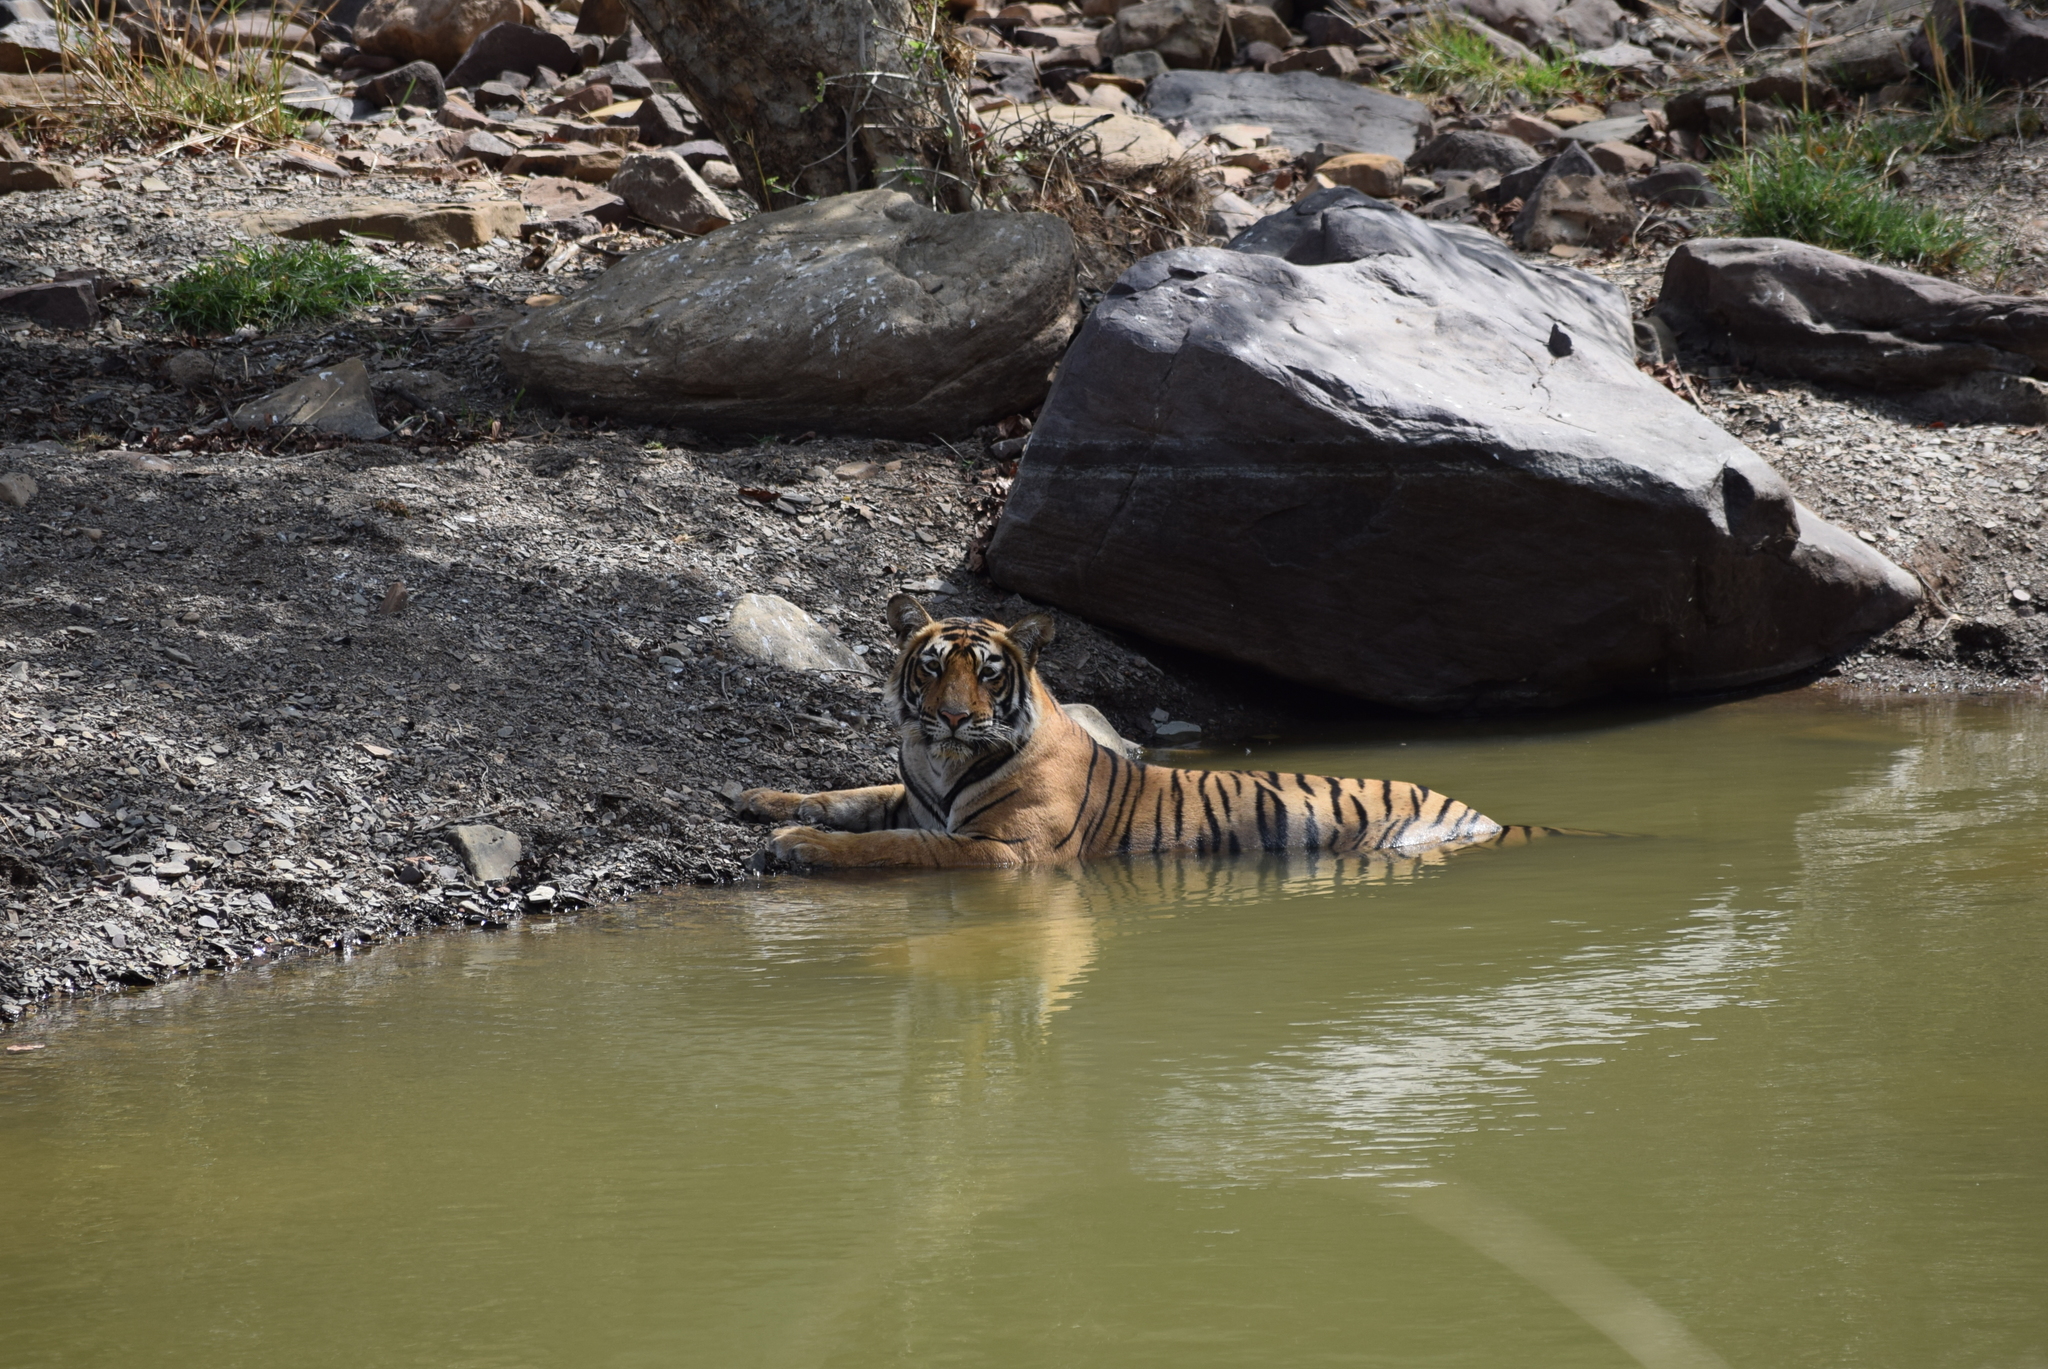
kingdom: Animalia
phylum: Chordata
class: Mammalia
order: Carnivora
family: Felidae
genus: Panthera
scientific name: Panthera tigris
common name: Tiger
